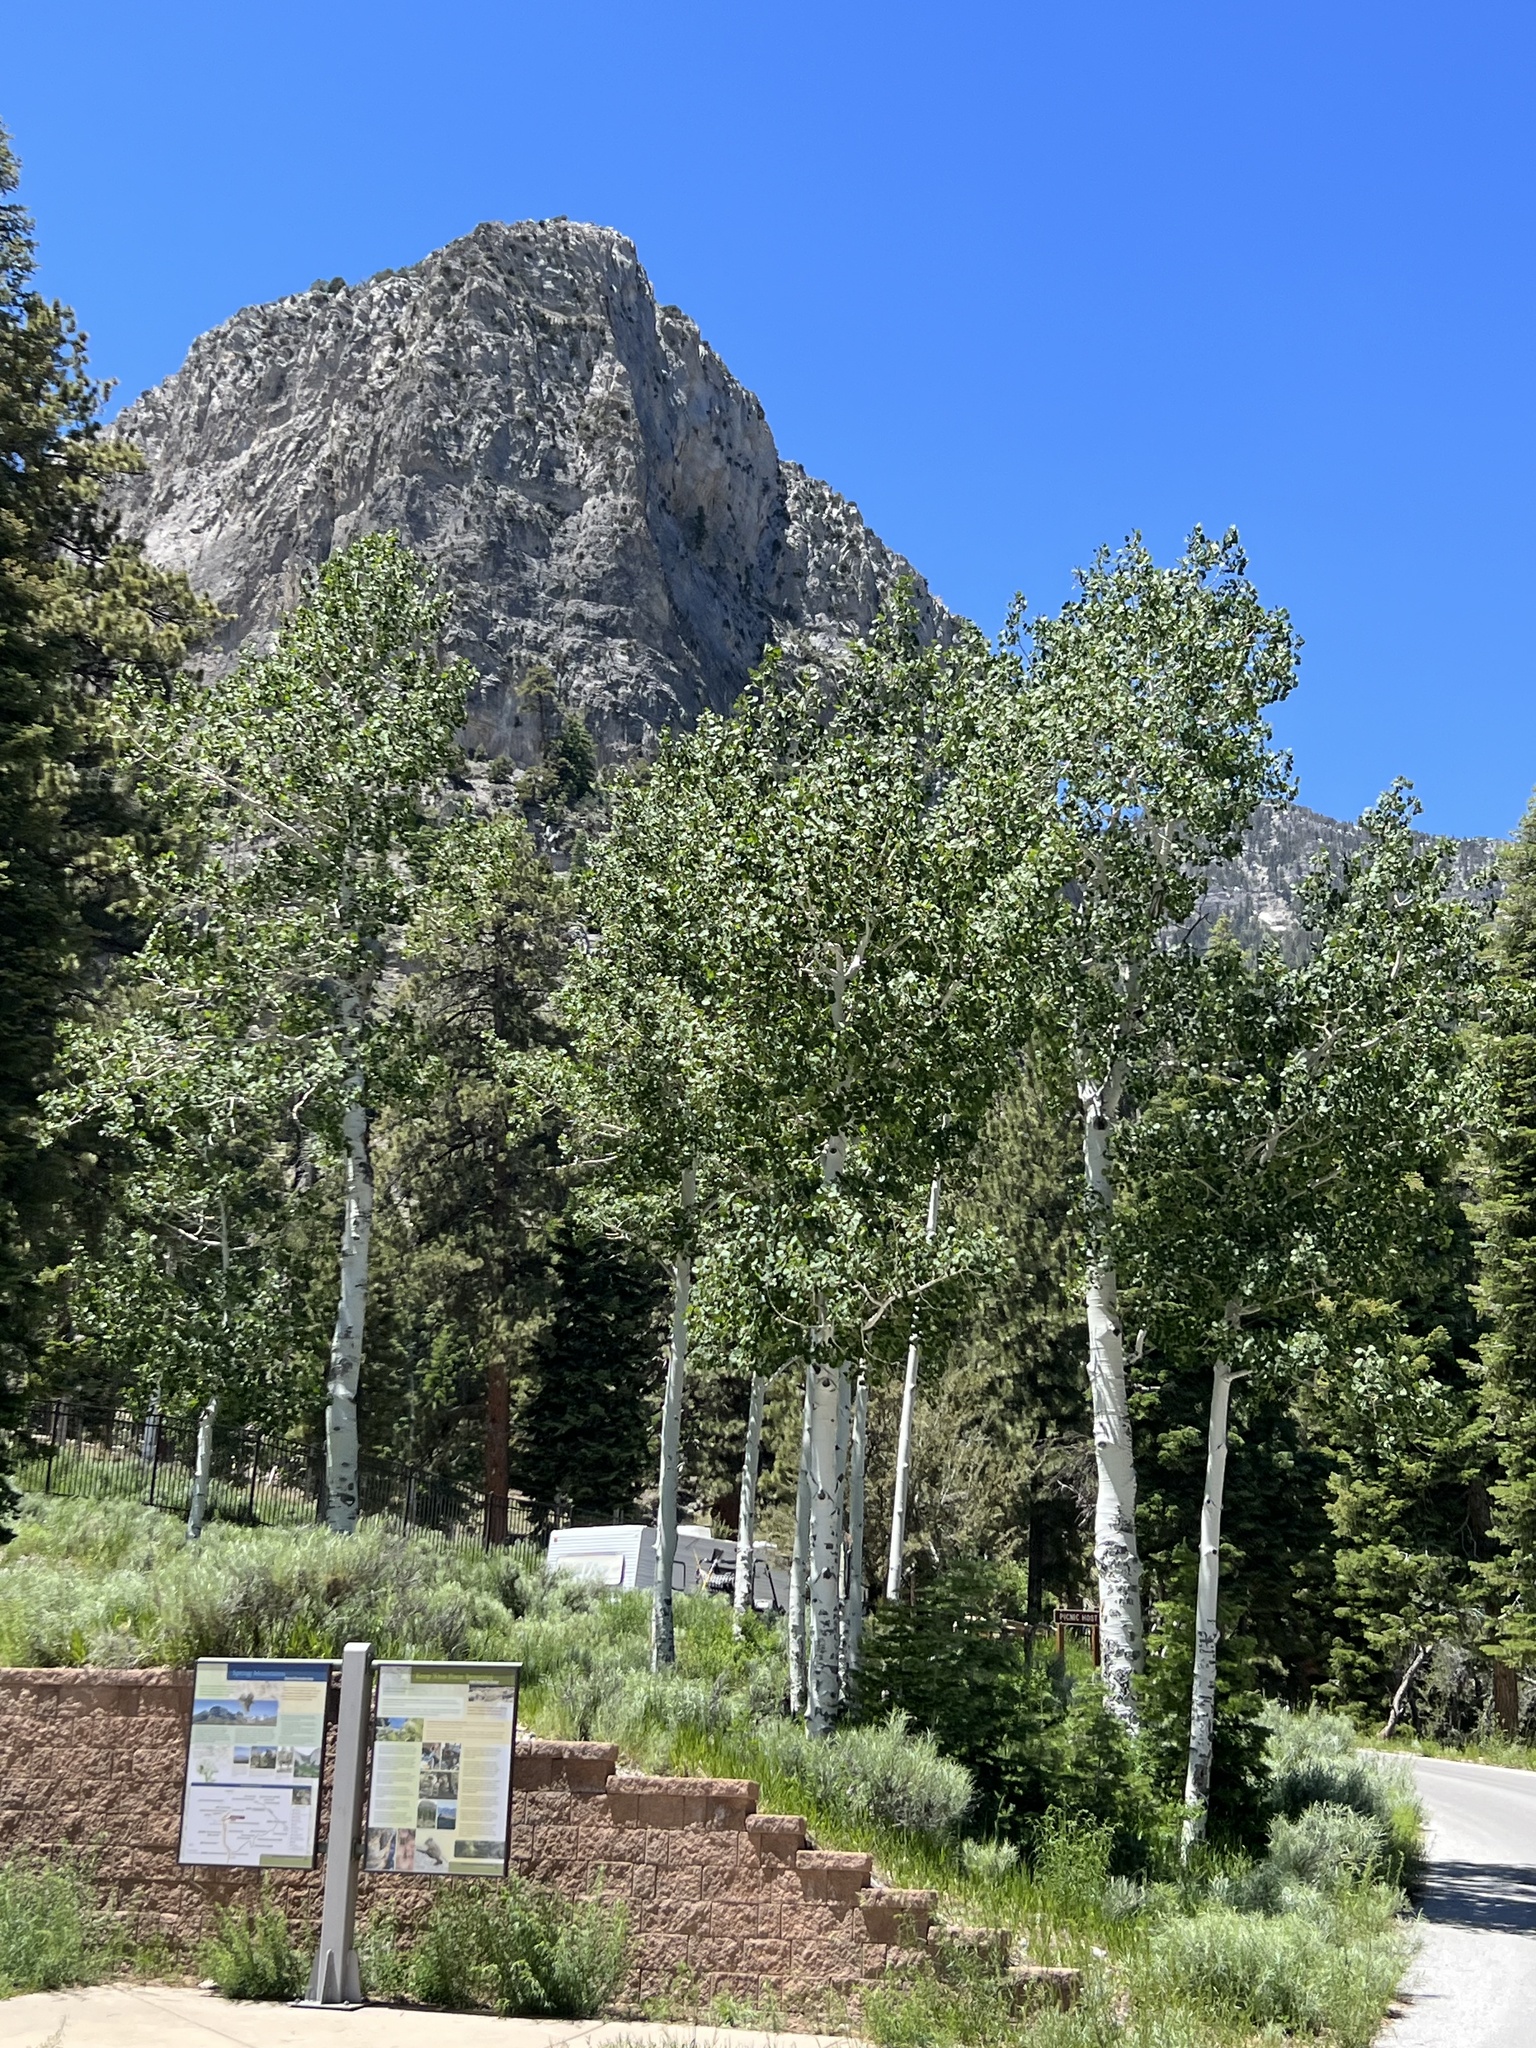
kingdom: Plantae
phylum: Tracheophyta
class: Magnoliopsida
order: Malpighiales
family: Salicaceae
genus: Populus
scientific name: Populus tremuloides
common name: Quaking aspen
